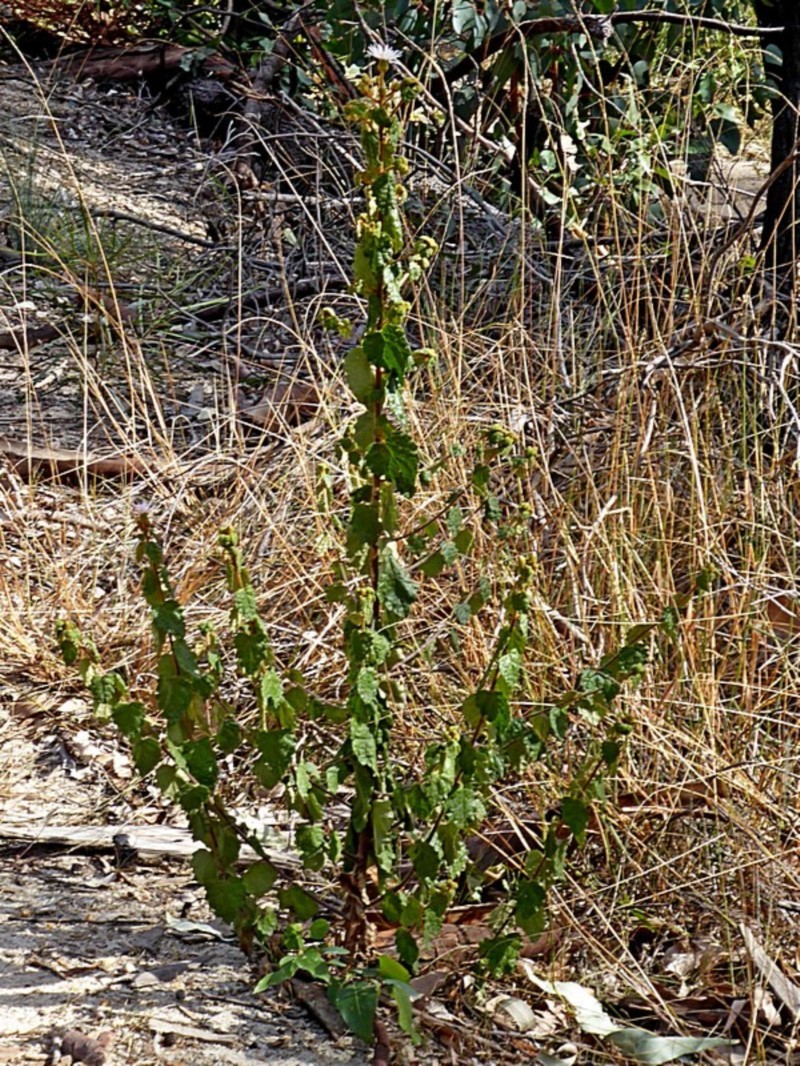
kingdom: Plantae
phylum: Tracheophyta
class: Magnoliopsida
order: Asterales
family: Asteraceae
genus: Olearia
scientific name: Olearia tomentosa
